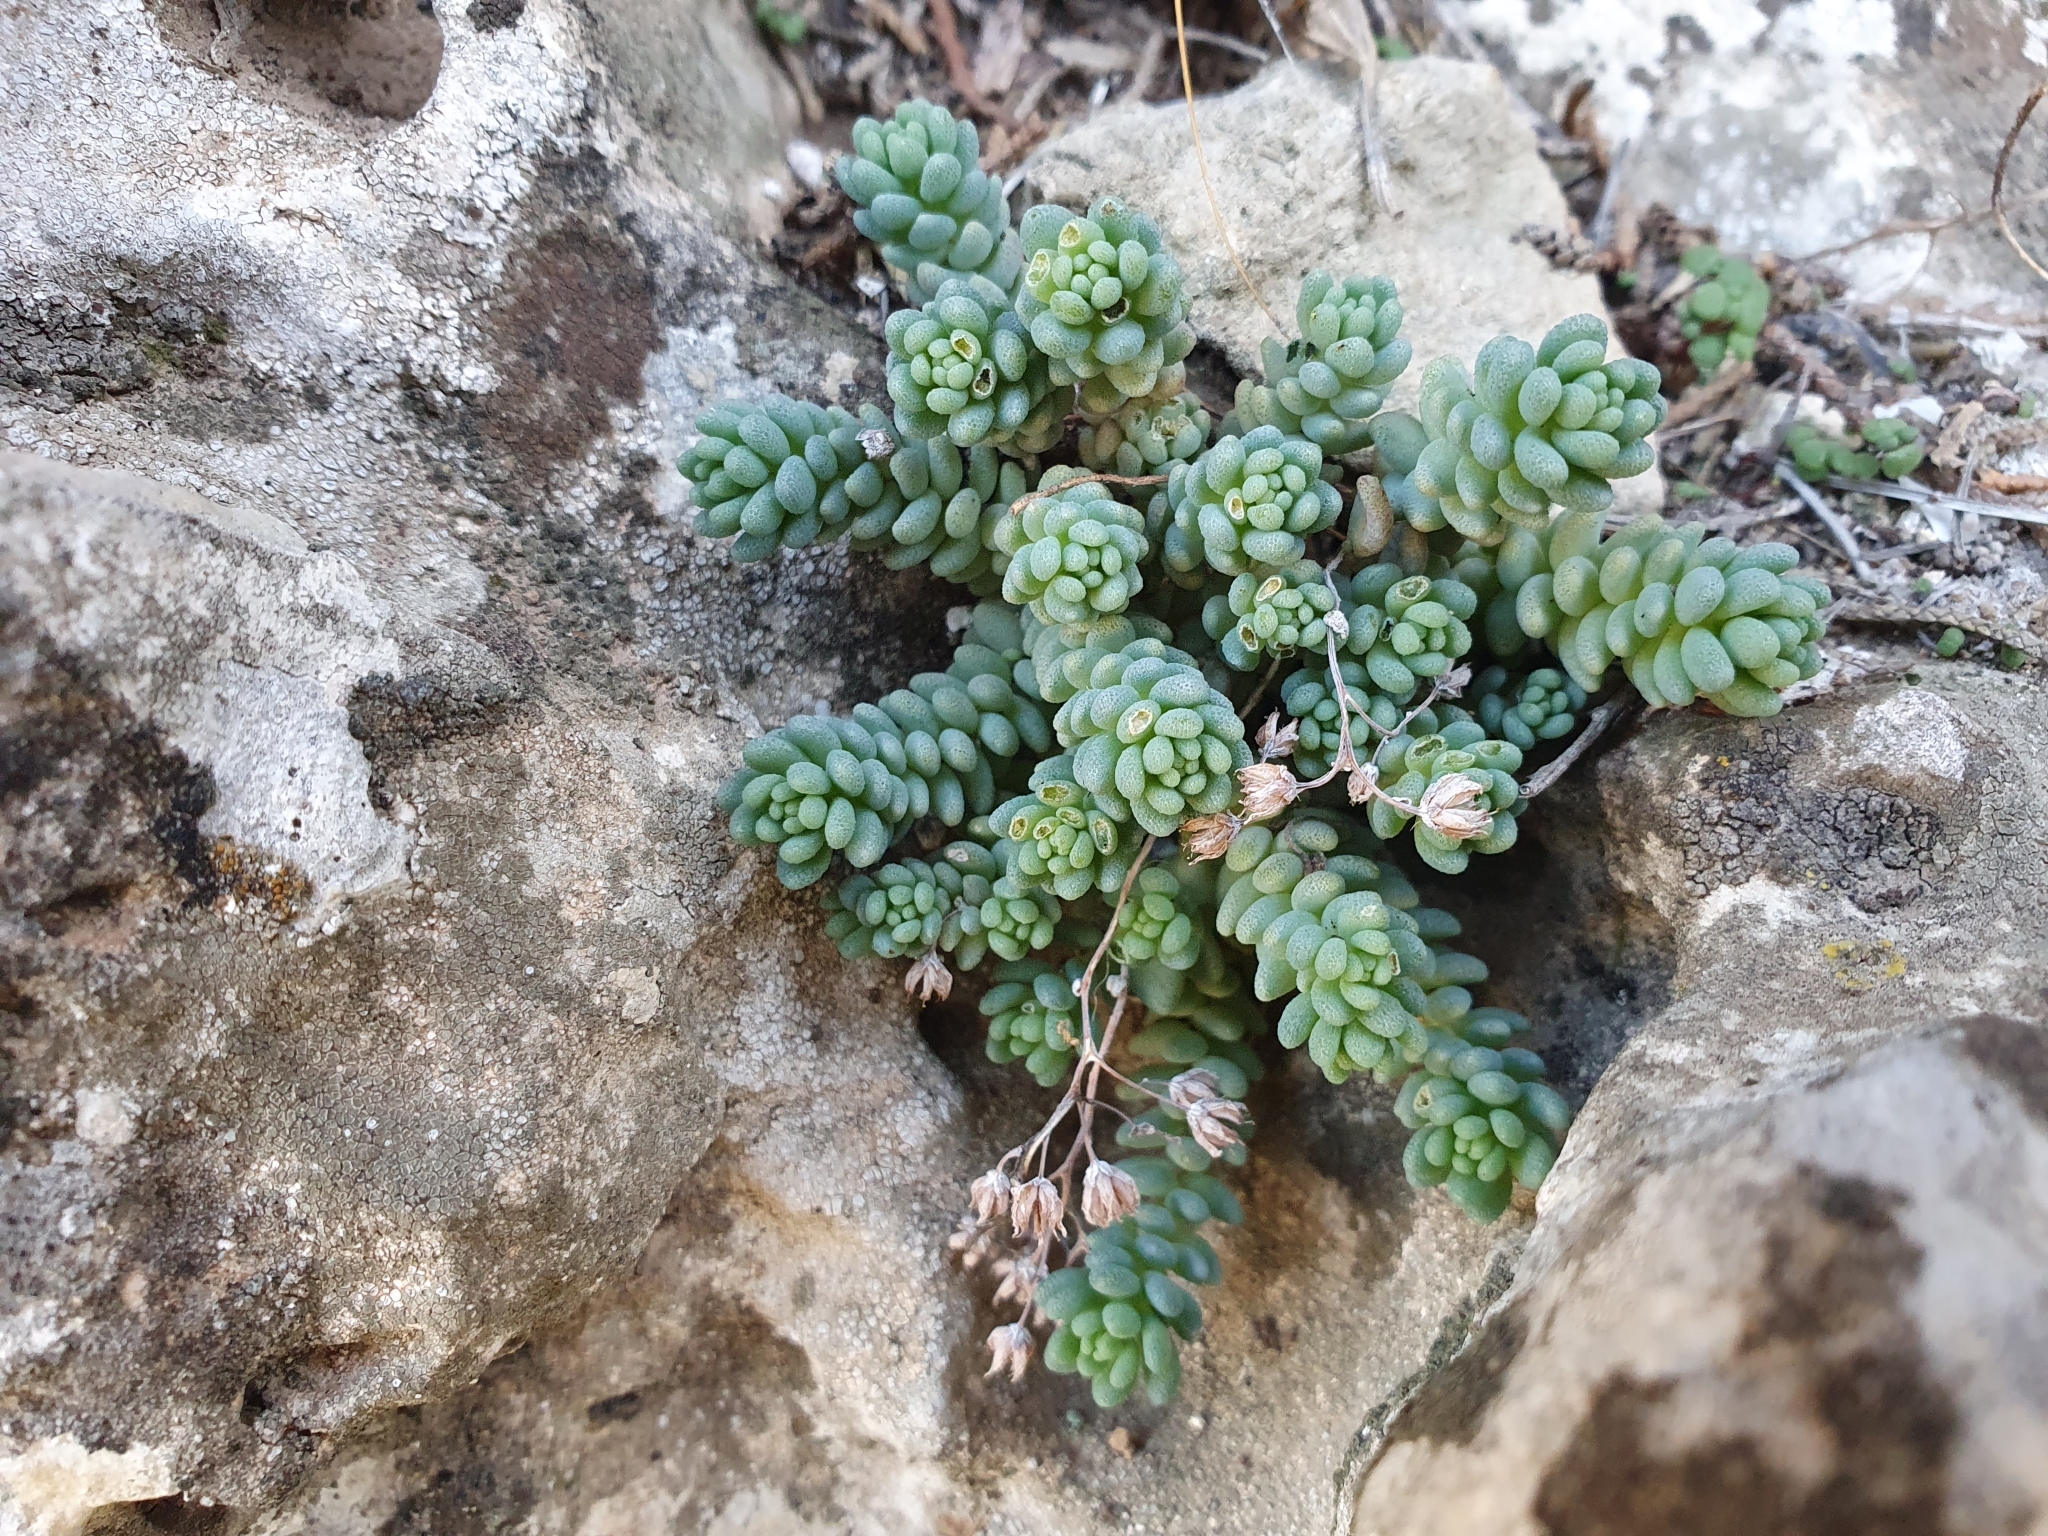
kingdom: Plantae
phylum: Tracheophyta
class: Magnoliopsida
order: Saxifragales
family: Crassulaceae
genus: Sedum
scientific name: Sedum dasyphyllum
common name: Thick-leaf stonecrop
